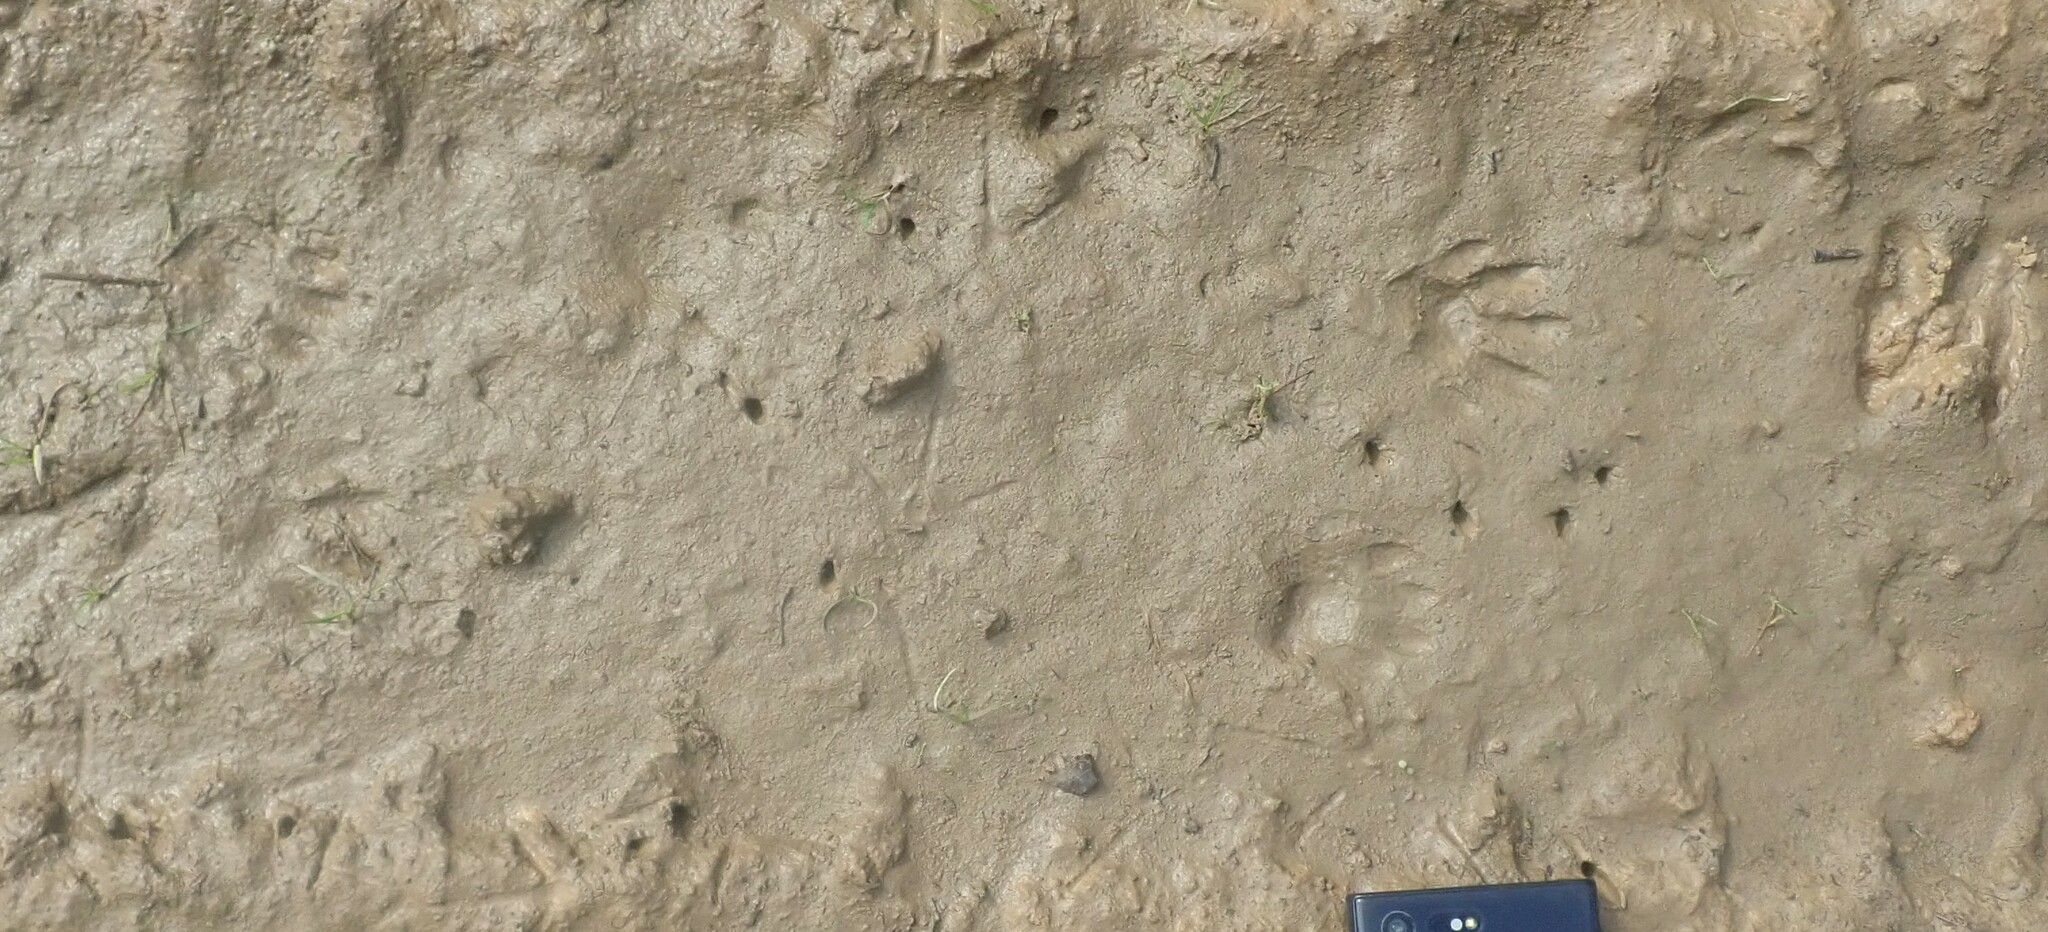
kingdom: Animalia
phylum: Chordata
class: Mammalia
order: Carnivora
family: Procyonidae
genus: Procyon
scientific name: Procyon lotor
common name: Raccoon
